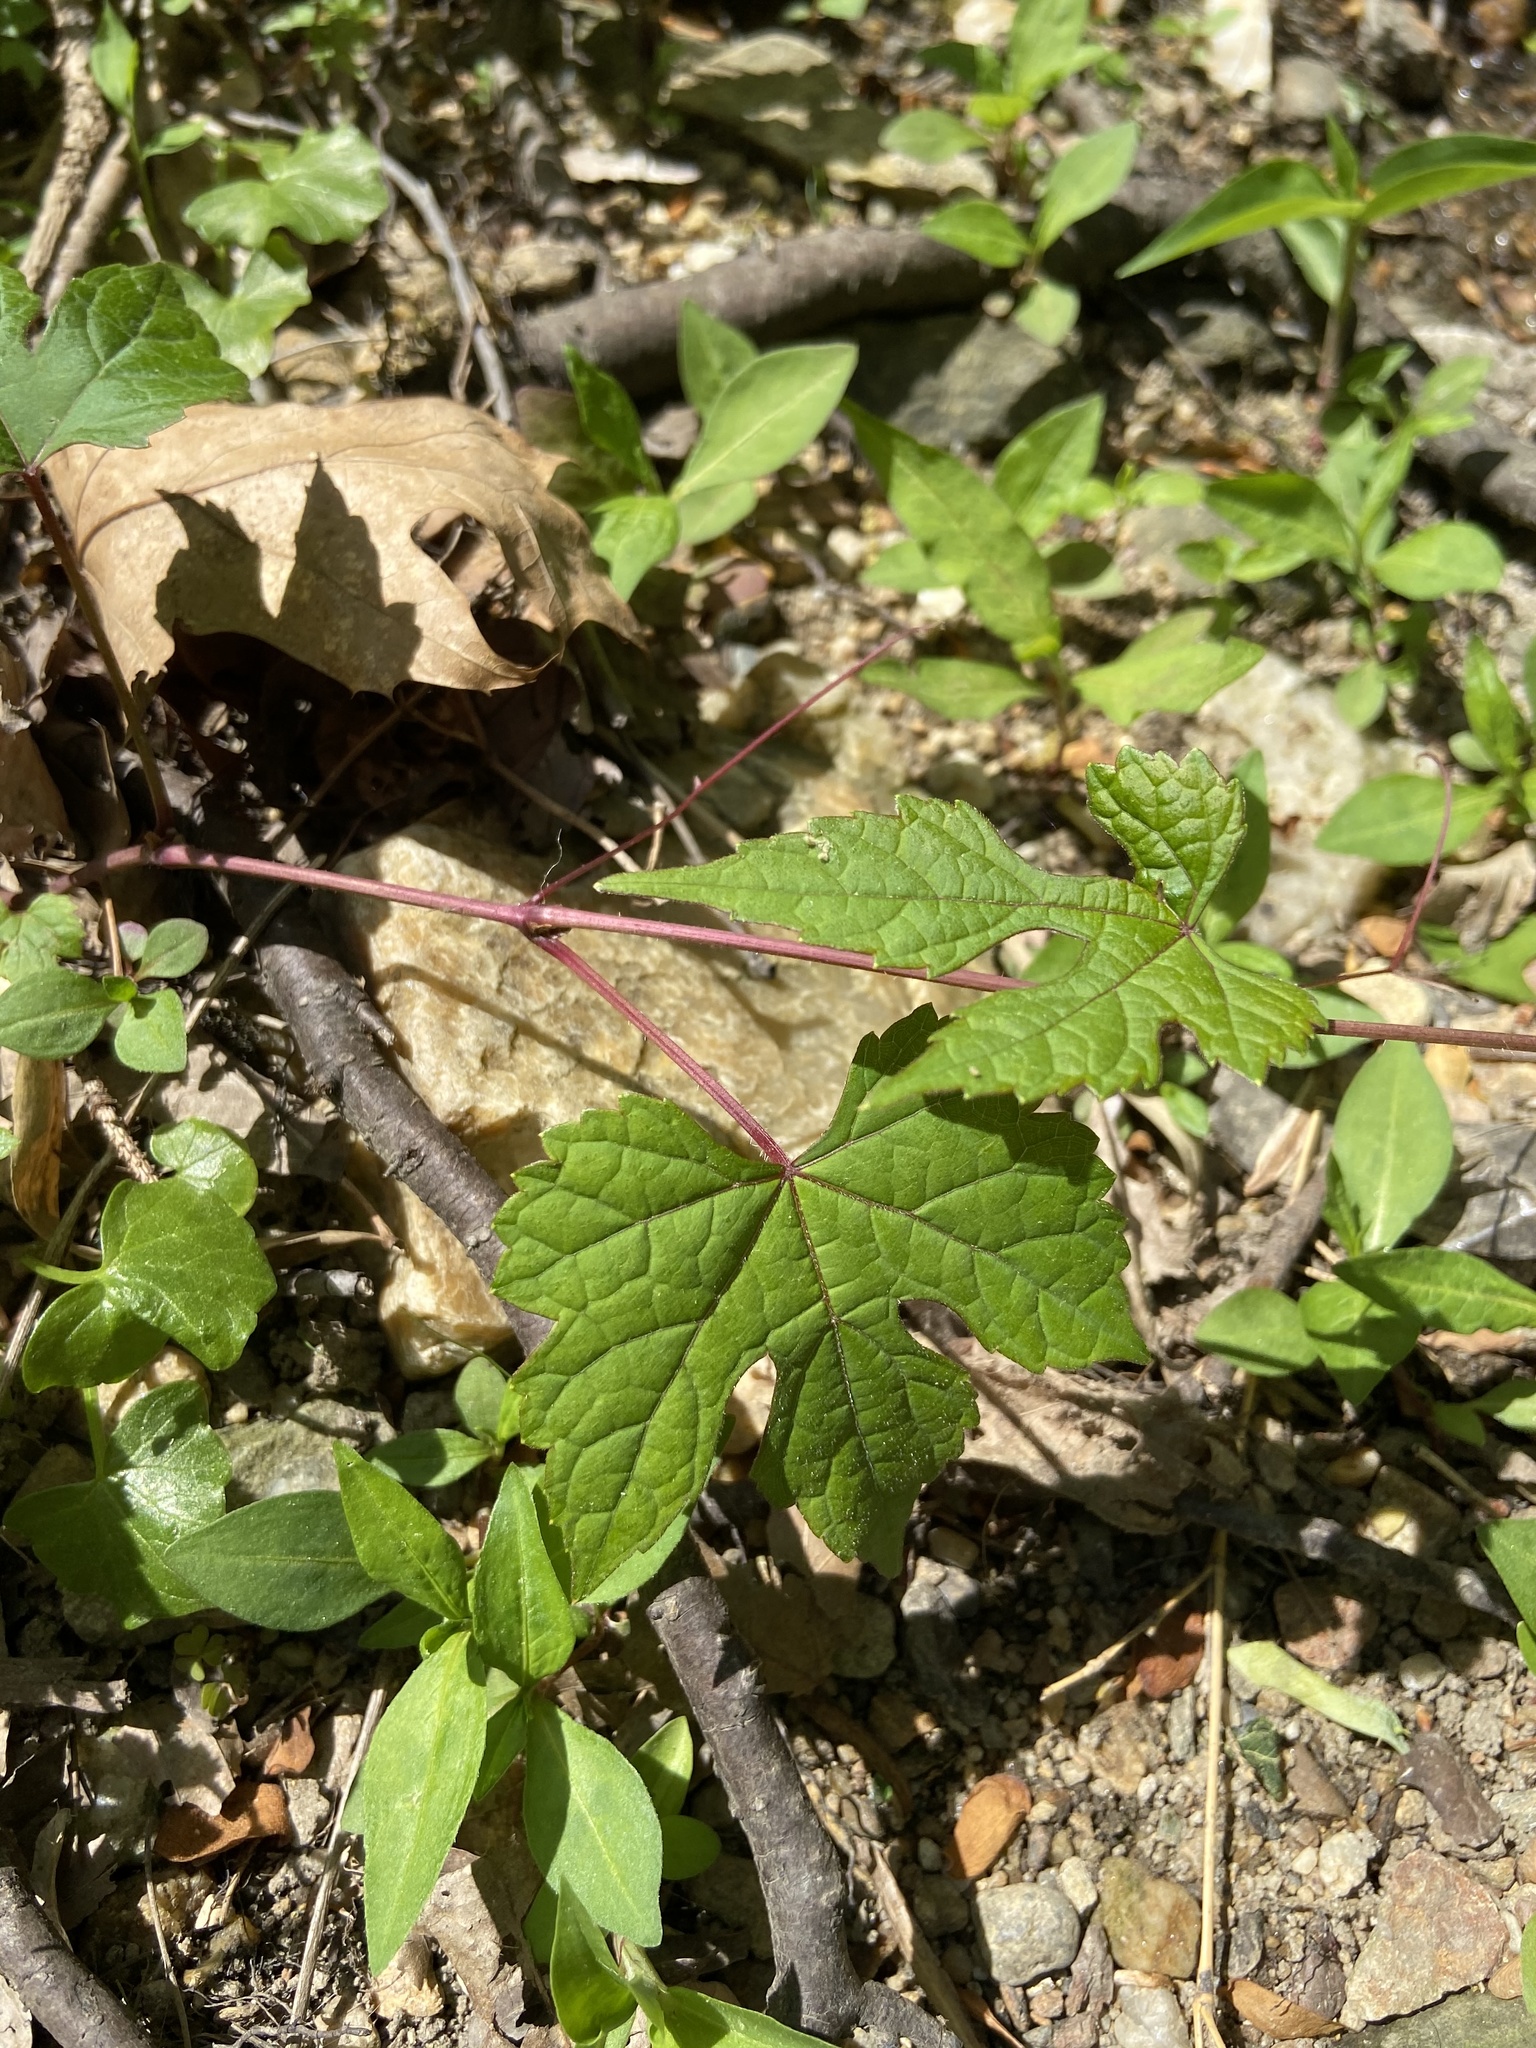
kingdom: Plantae
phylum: Tracheophyta
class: Magnoliopsida
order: Vitales
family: Vitaceae
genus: Ampelopsis
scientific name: Ampelopsis glandulosa
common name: Amur peppervine
